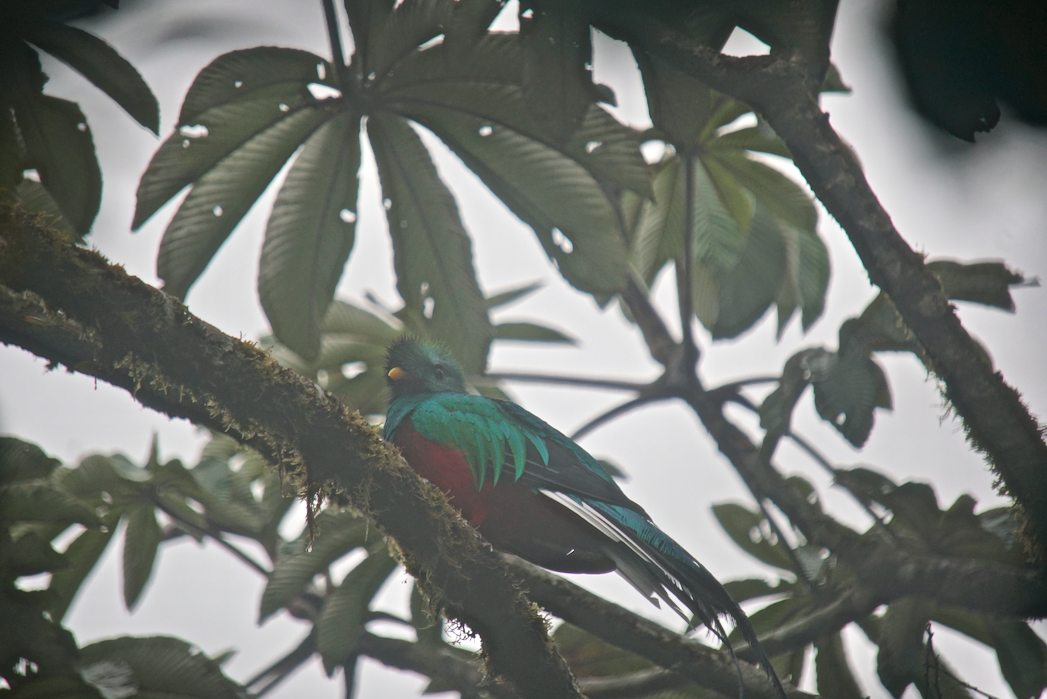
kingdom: Animalia
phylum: Chordata
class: Aves
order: Trogoniformes
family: Trogonidae
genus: Pharomachrus
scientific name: Pharomachrus mocinno
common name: Resplendent quetzal
